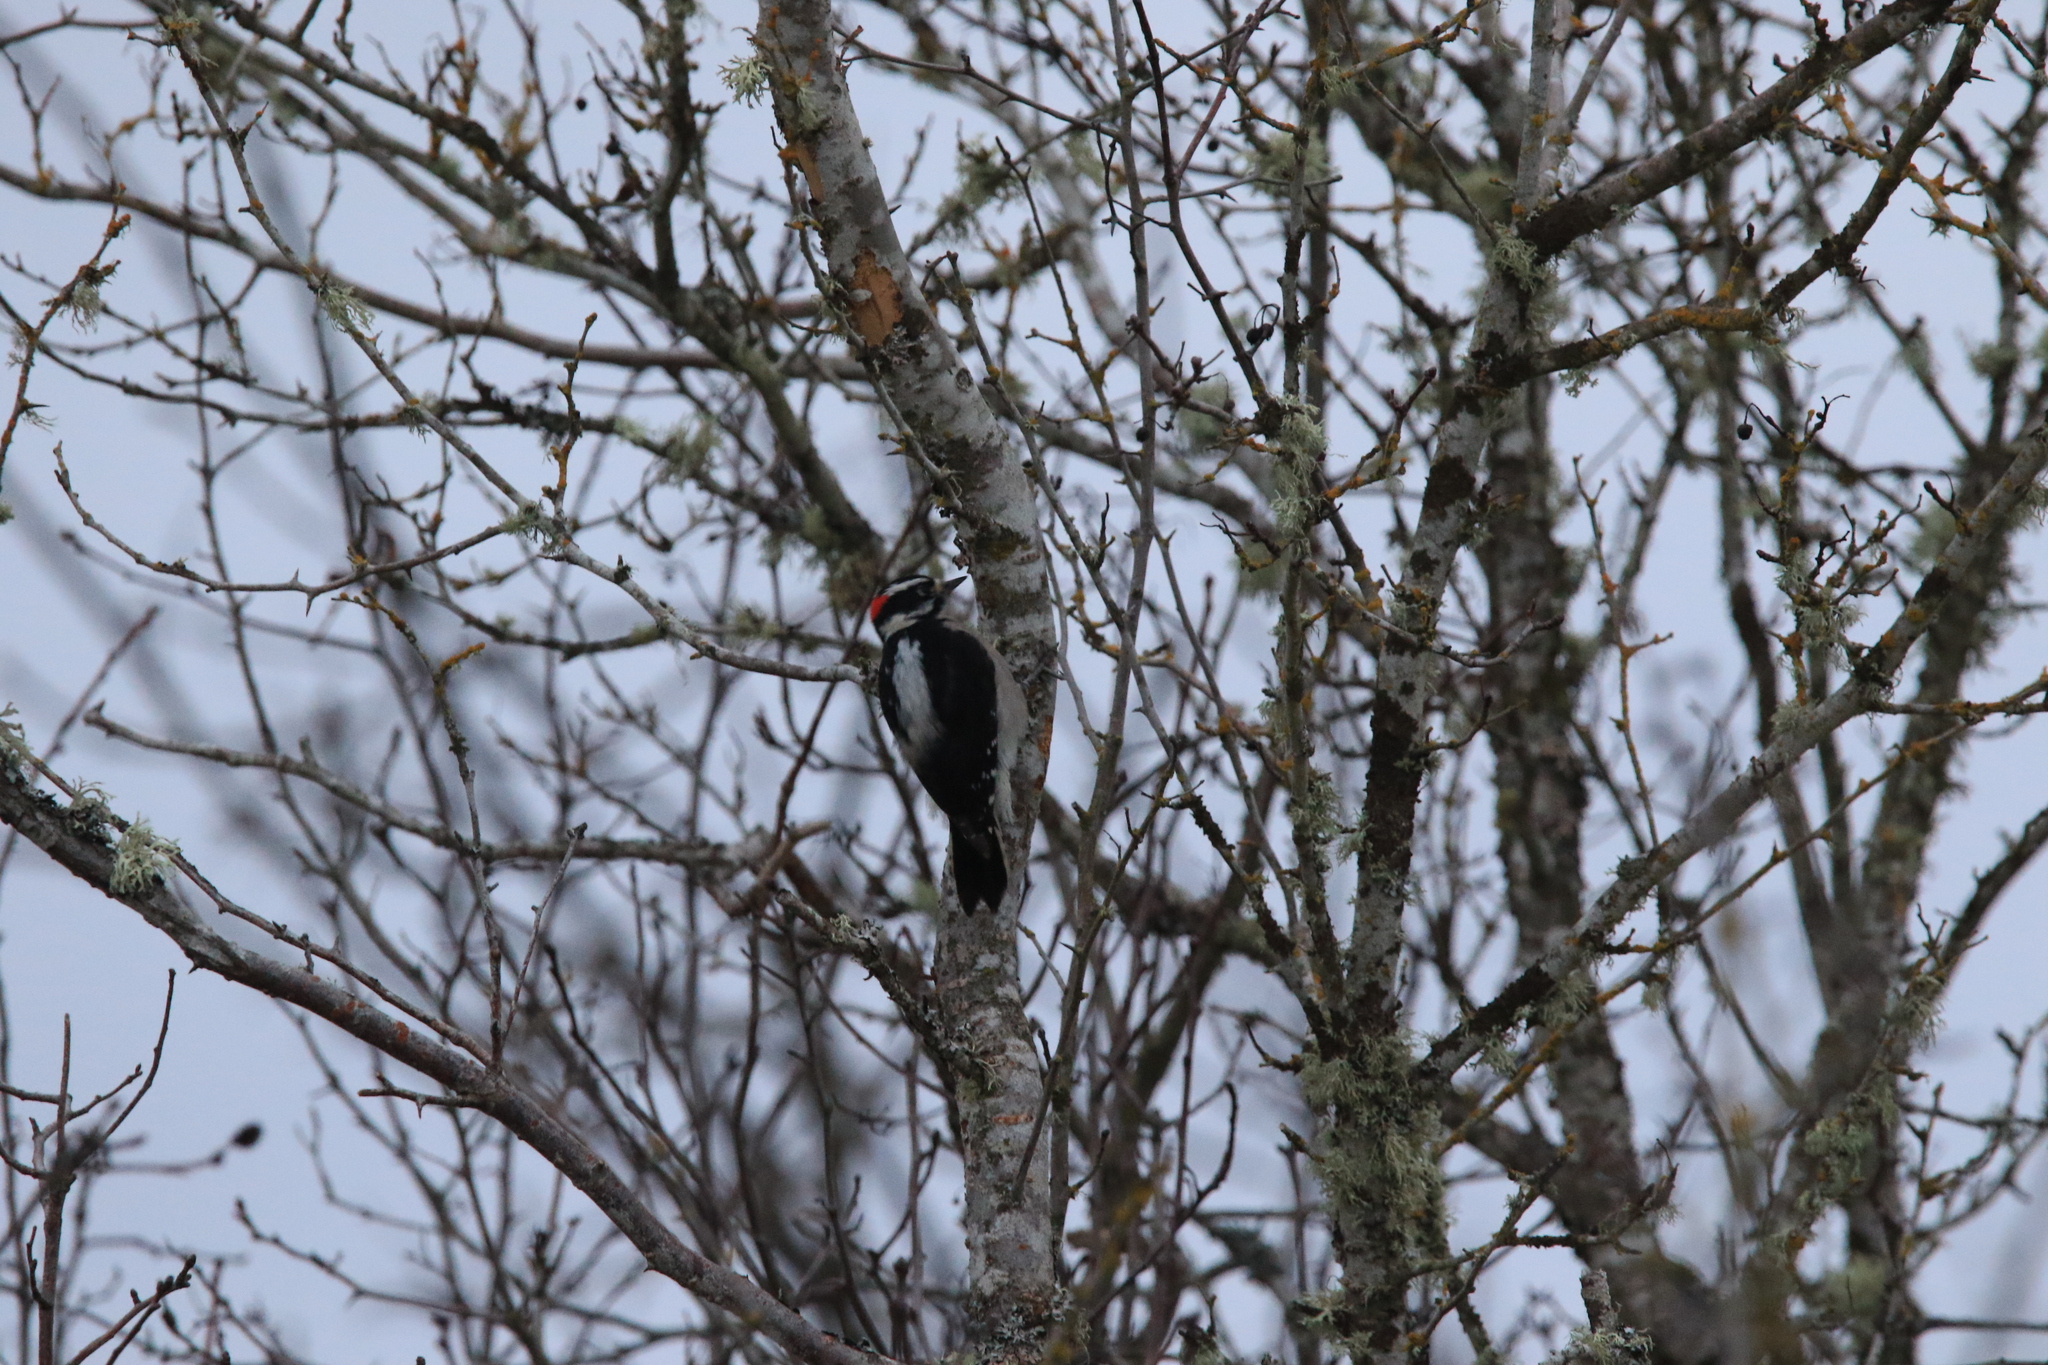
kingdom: Animalia
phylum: Chordata
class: Aves
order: Piciformes
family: Picidae
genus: Dryobates
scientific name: Dryobates pubescens
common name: Downy woodpecker
